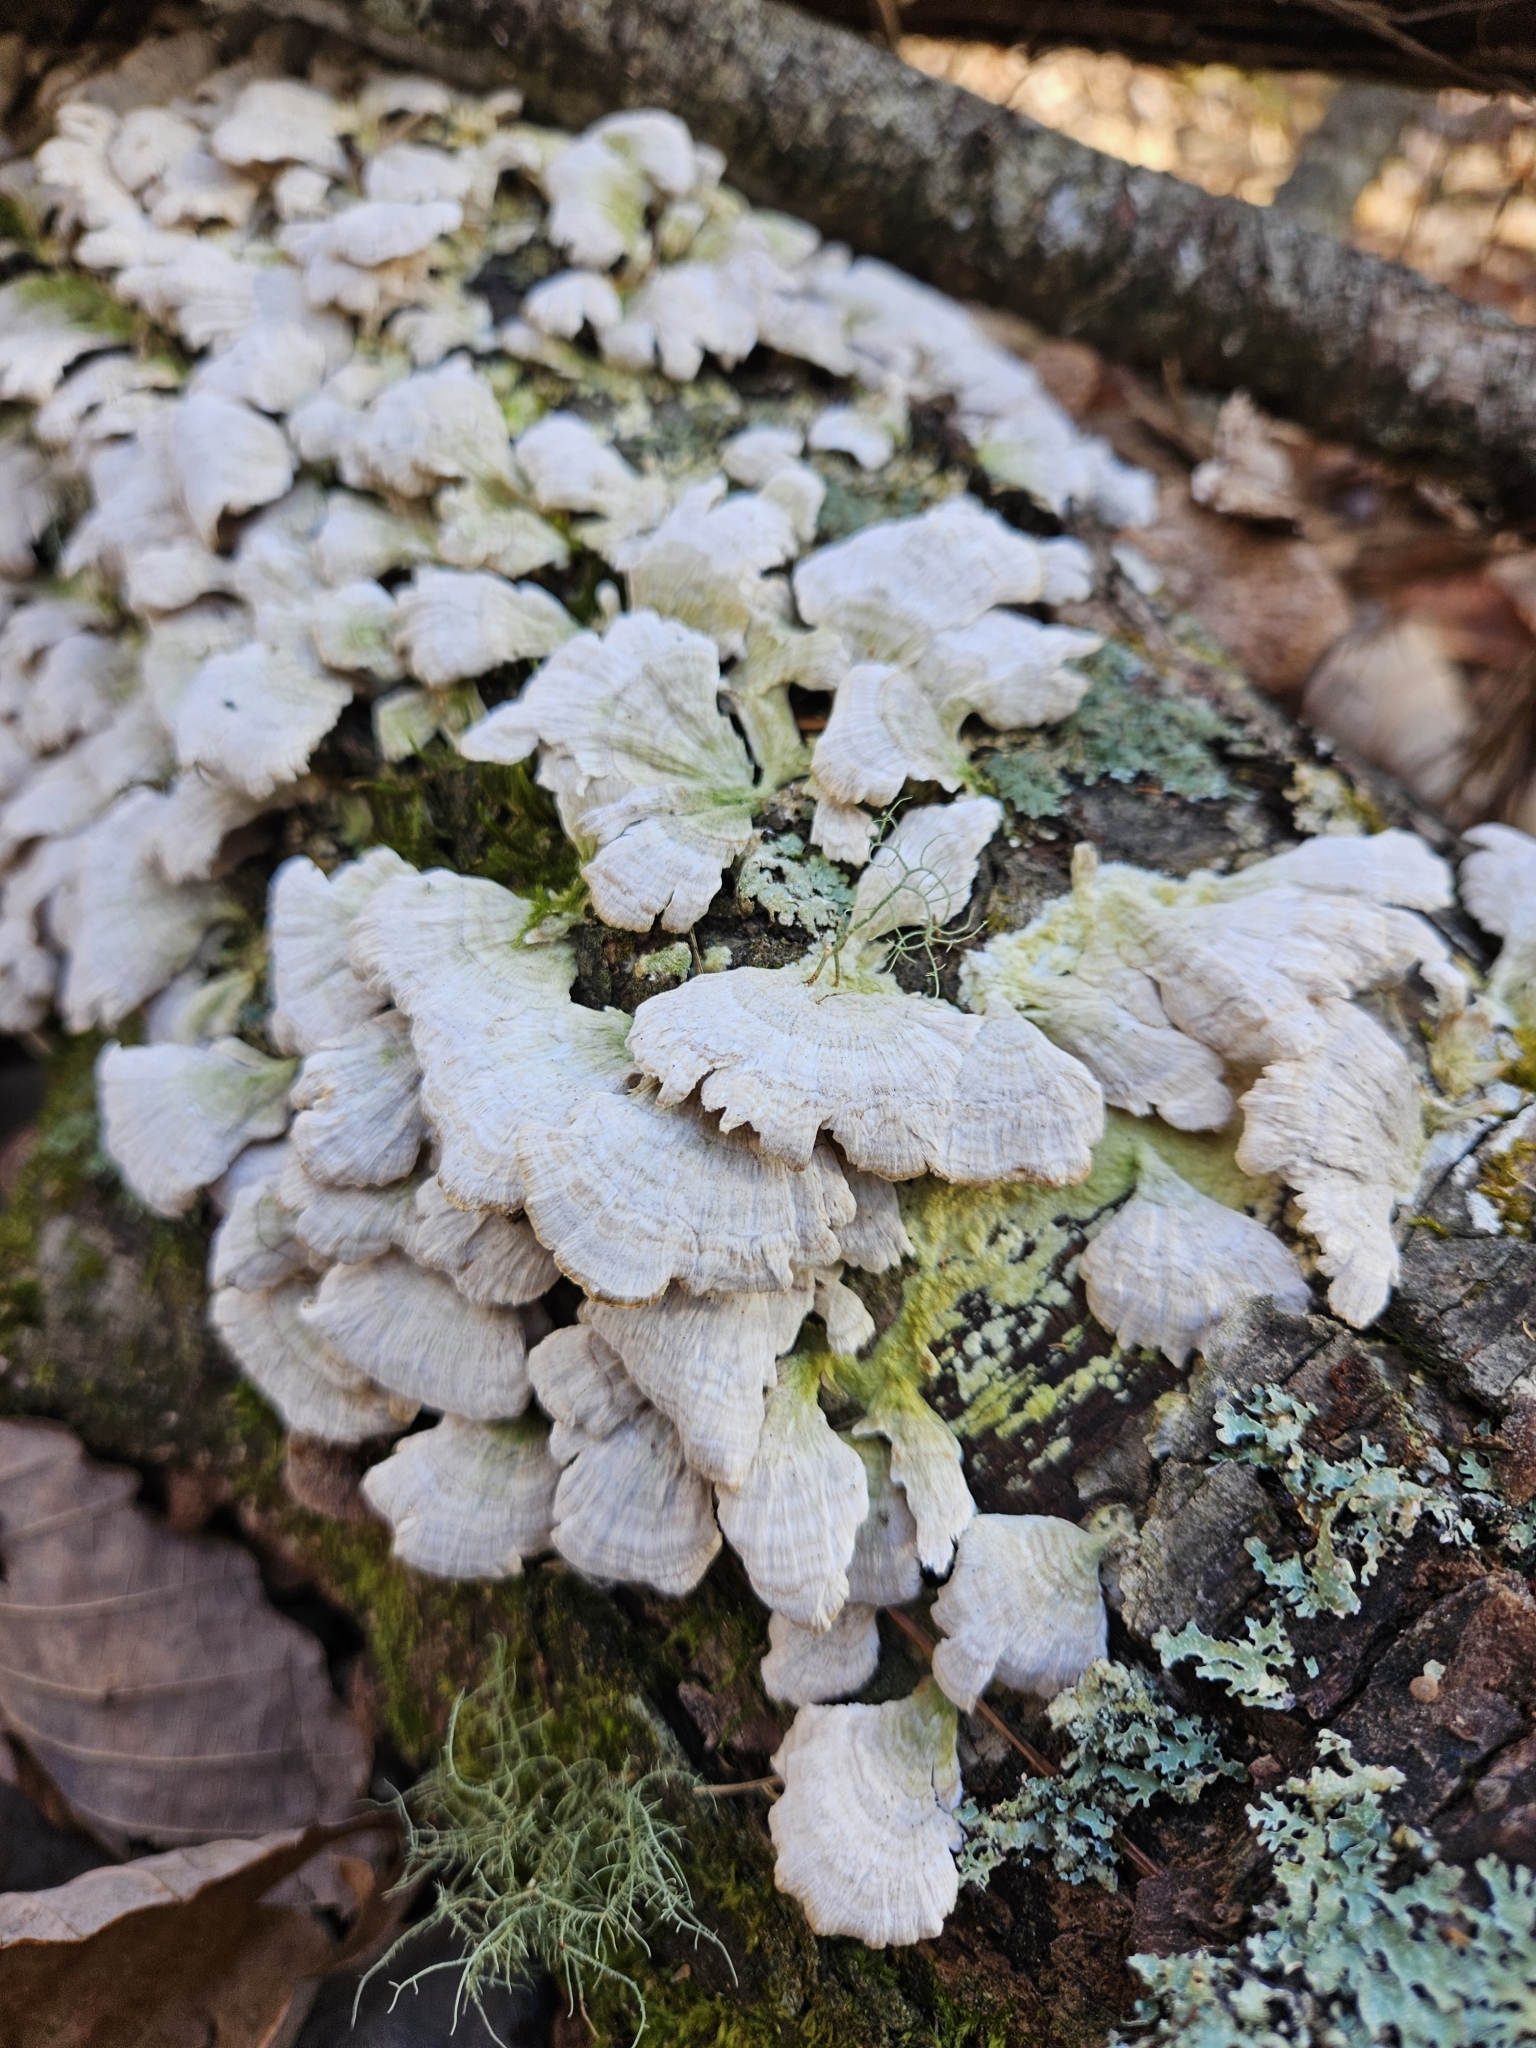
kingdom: Fungi
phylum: Basidiomycota
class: Agaricomycetes
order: Hymenochaetales
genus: Trichaptum
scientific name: Trichaptum biforme
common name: Violet-toothed polypore
